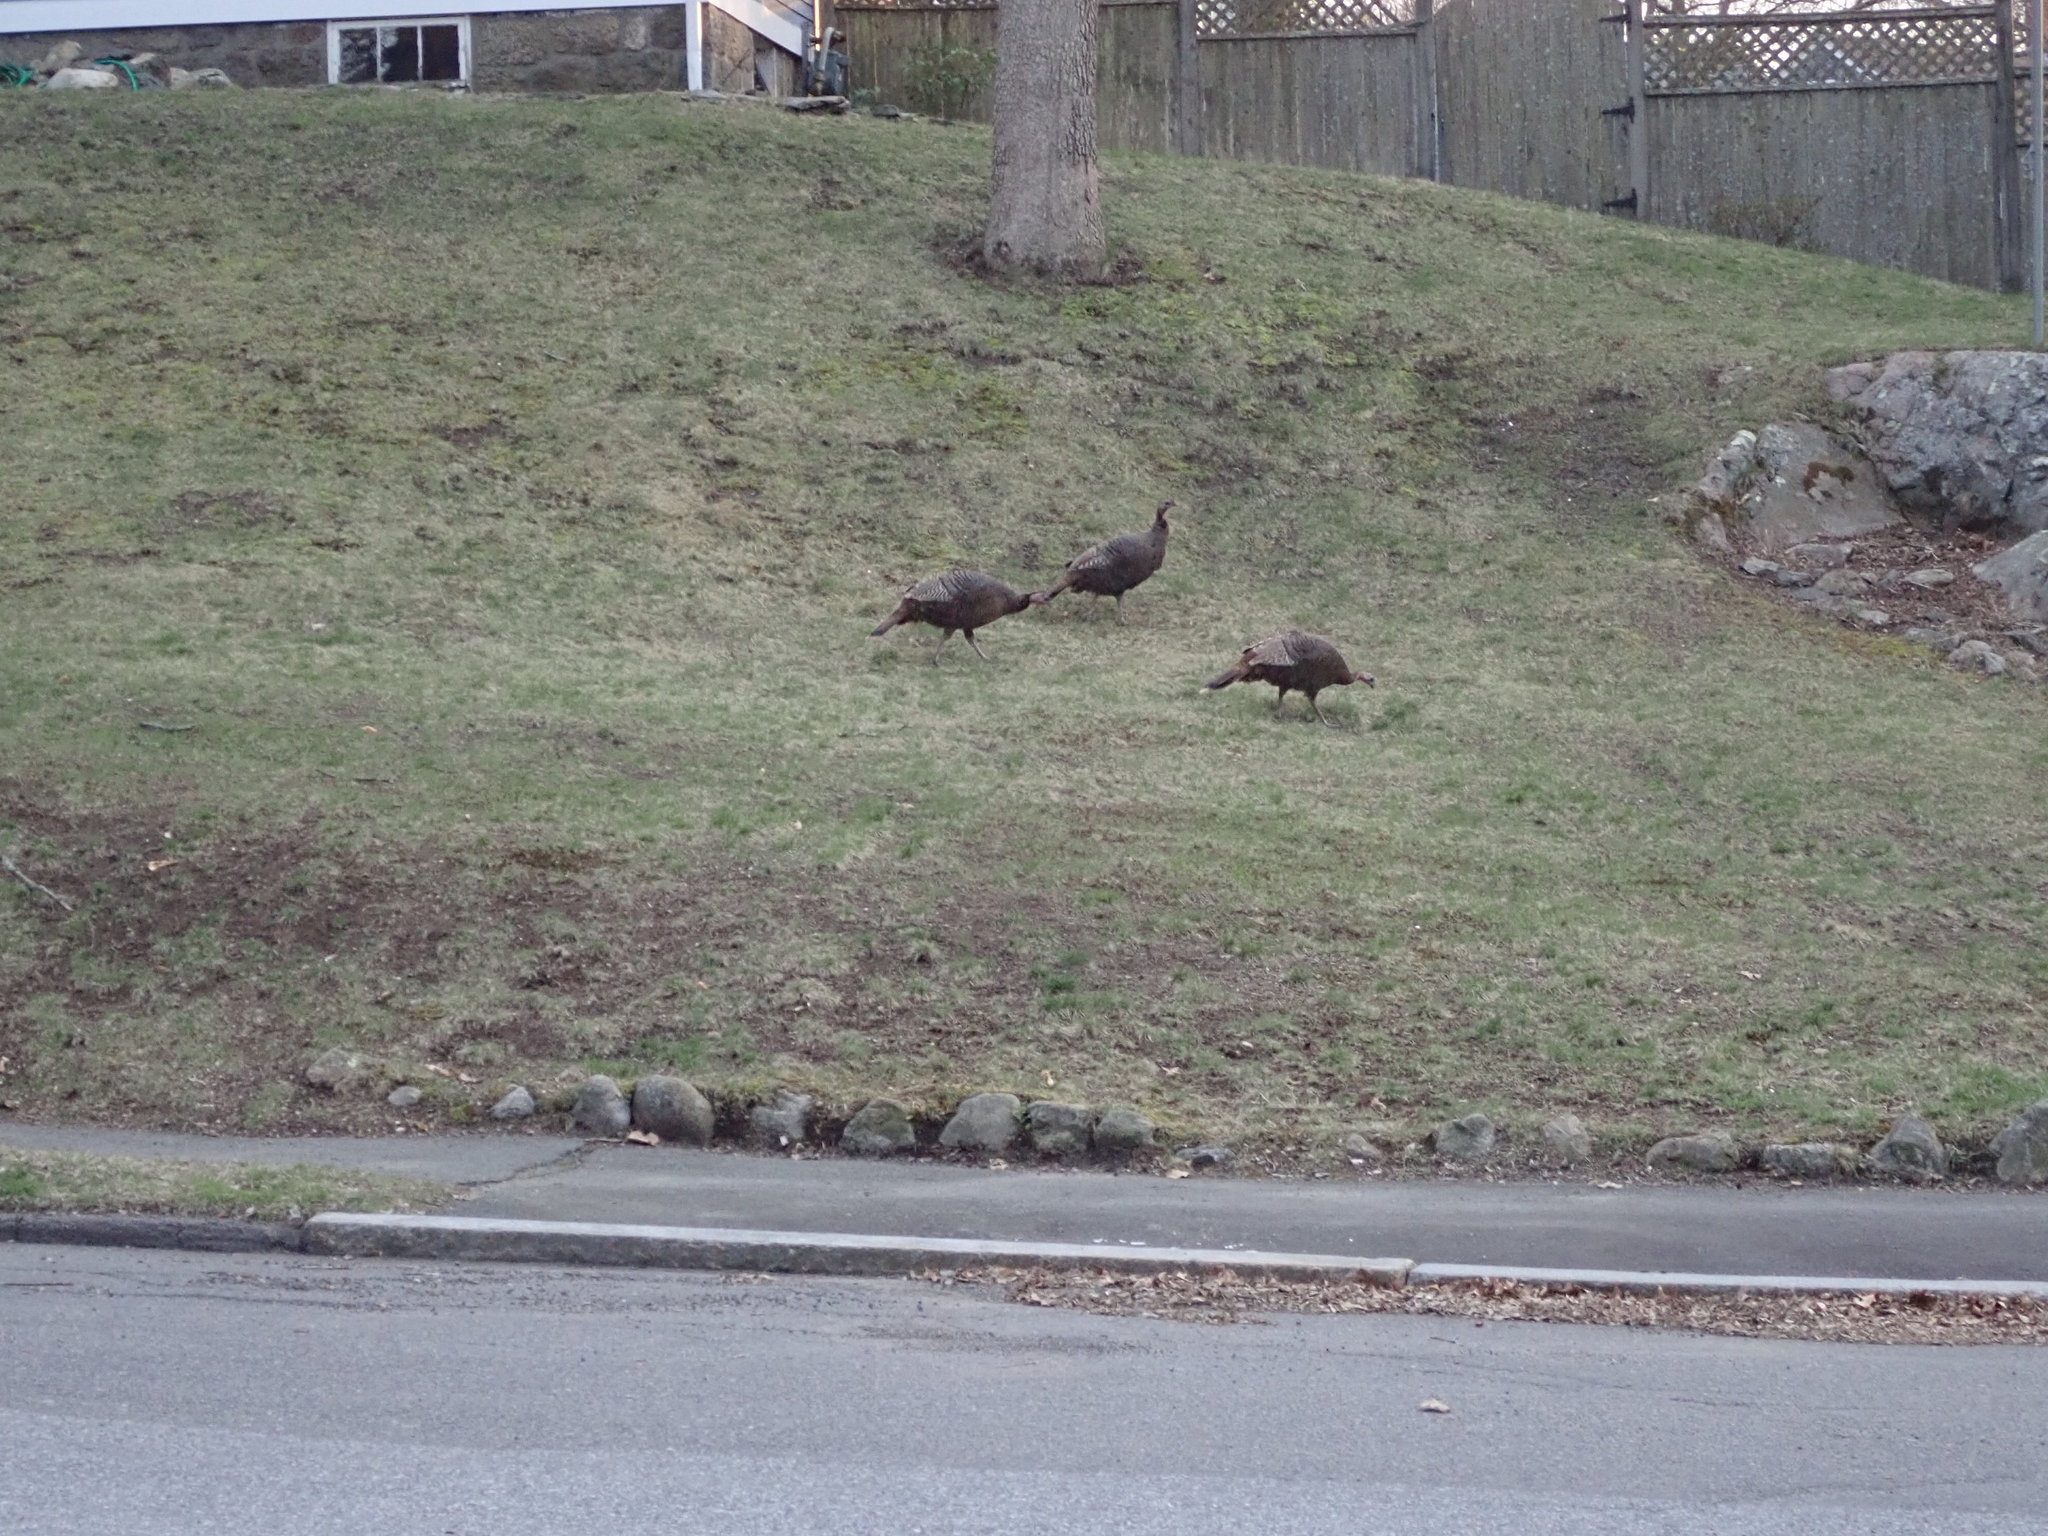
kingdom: Animalia
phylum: Chordata
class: Aves
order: Galliformes
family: Phasianidae
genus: Meleagris
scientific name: Meleagris gallopavo
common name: Wild turkey
